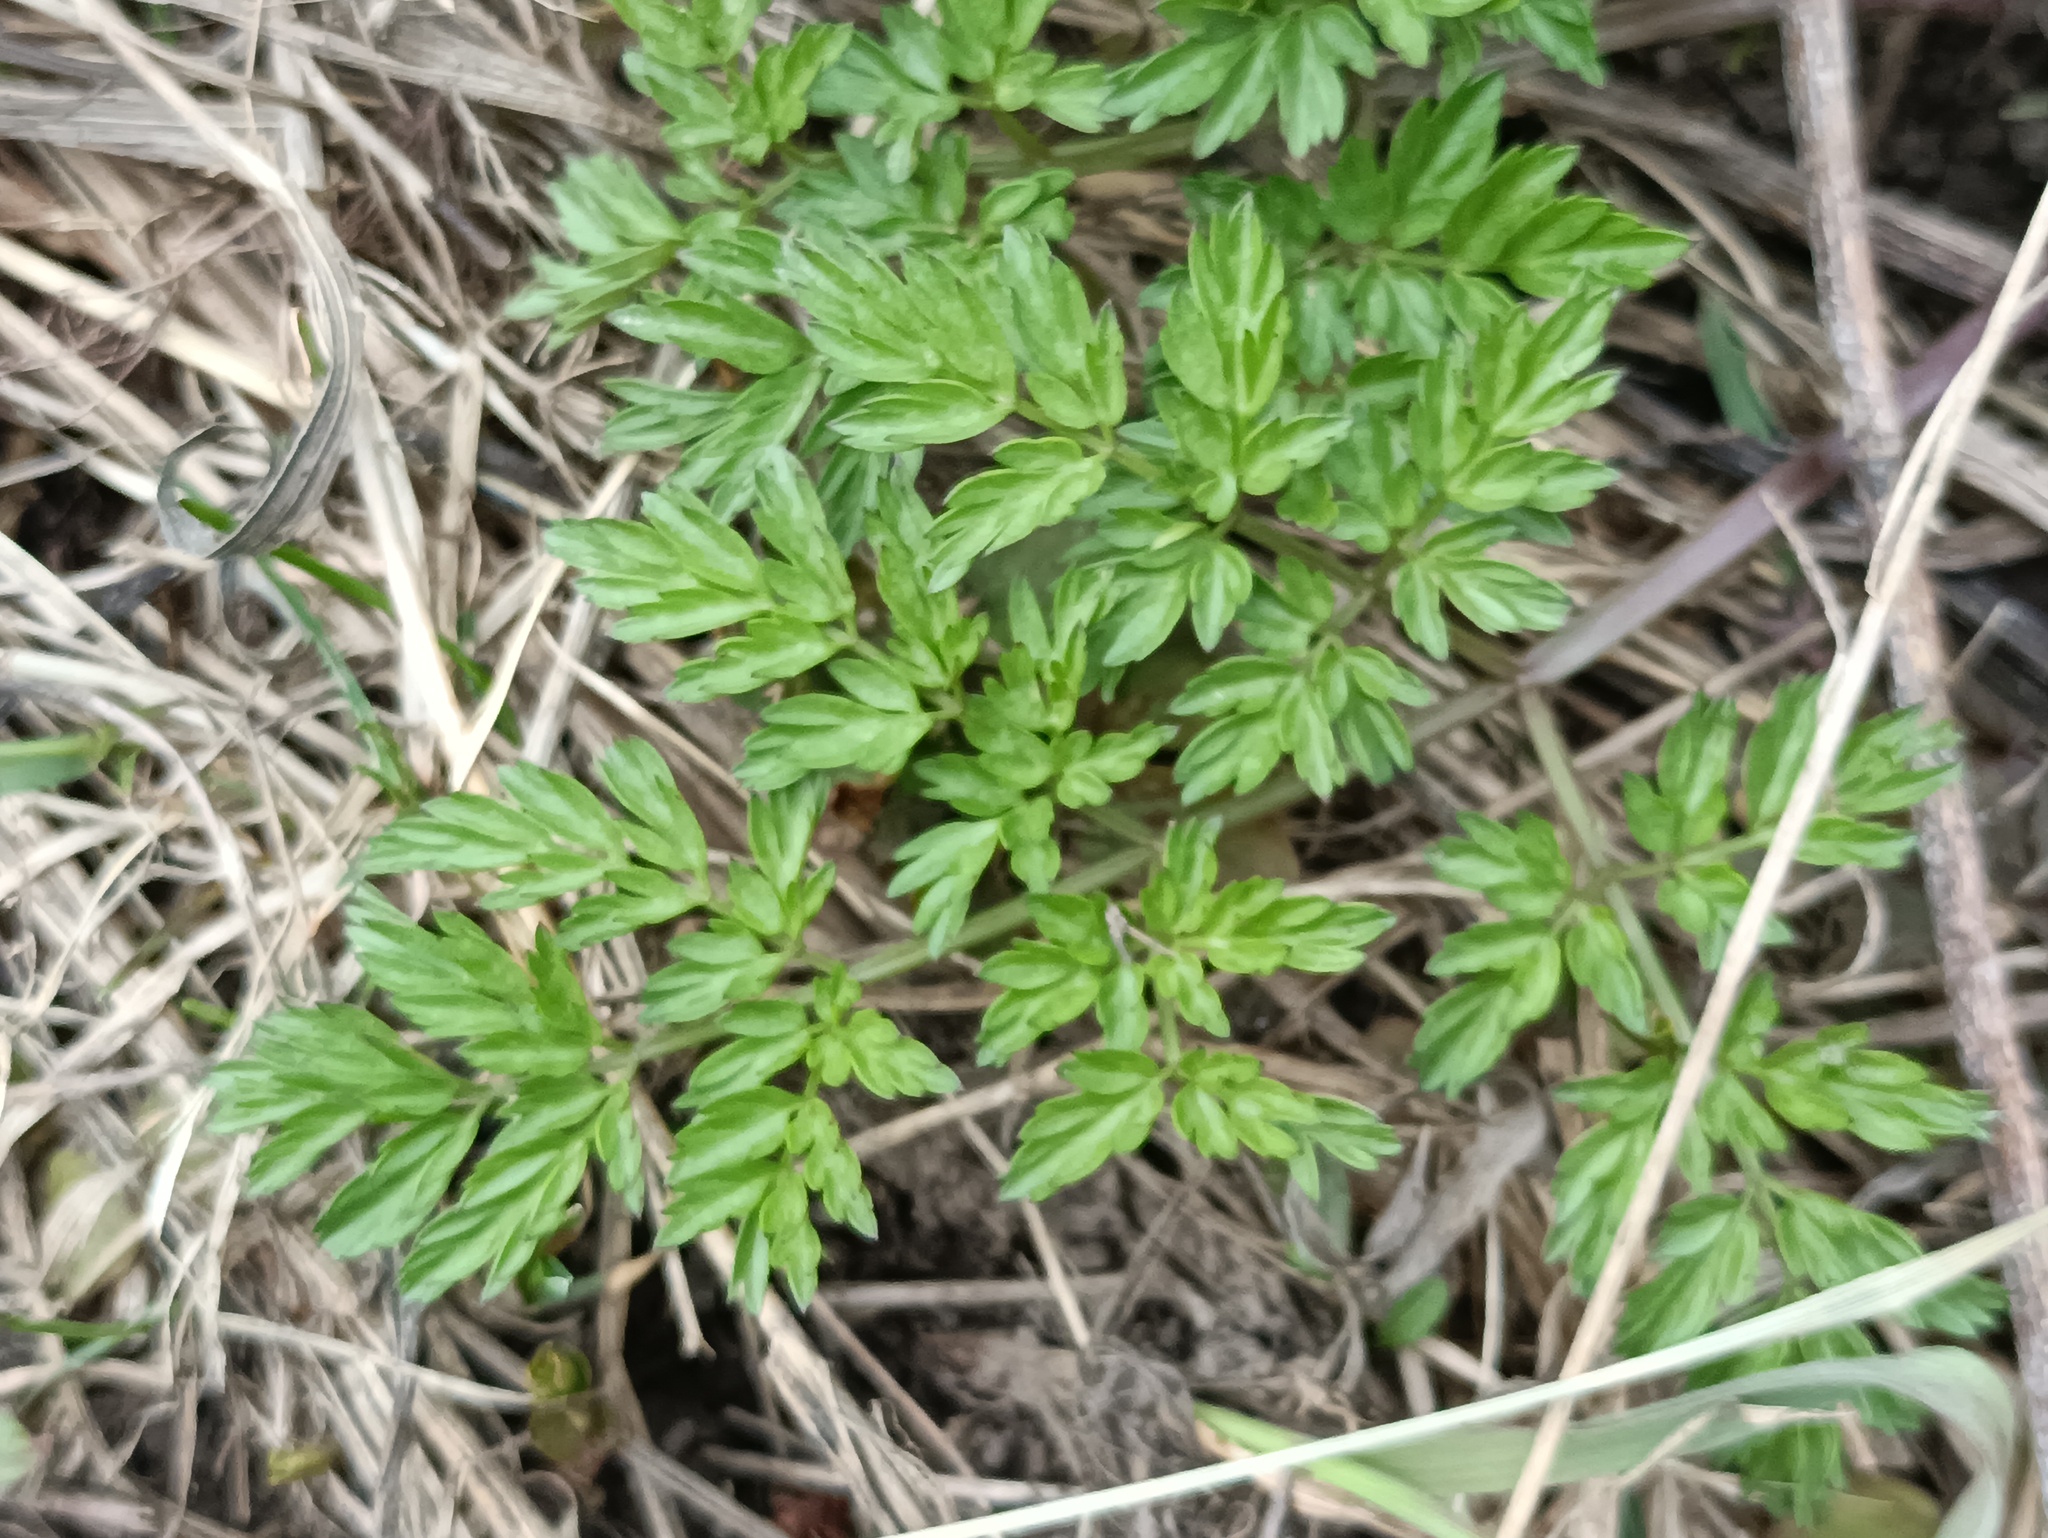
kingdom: Plantae
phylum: Tracheophyta
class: Magnoliopsida
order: Apiales
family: Apiaceae
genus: Anthriscus
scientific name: Anthriscus sylvestris
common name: Cow parsley
